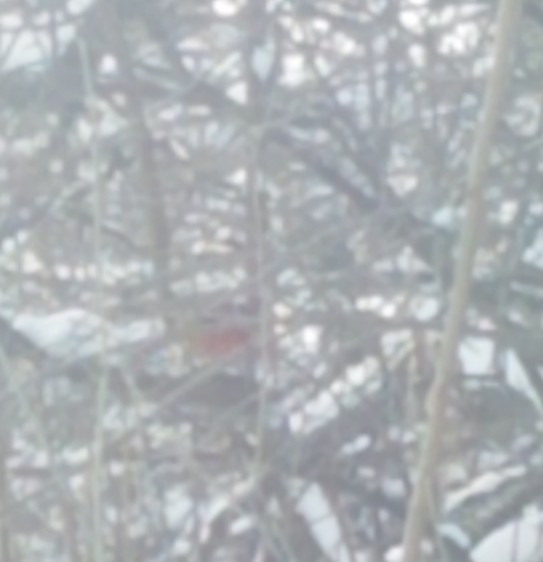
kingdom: Animalia
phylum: Chordata
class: Aves
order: Passeriformes
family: Cardinalidae
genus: Cardinalis
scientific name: Cardinalis cardinalis
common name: Northern cardinal
